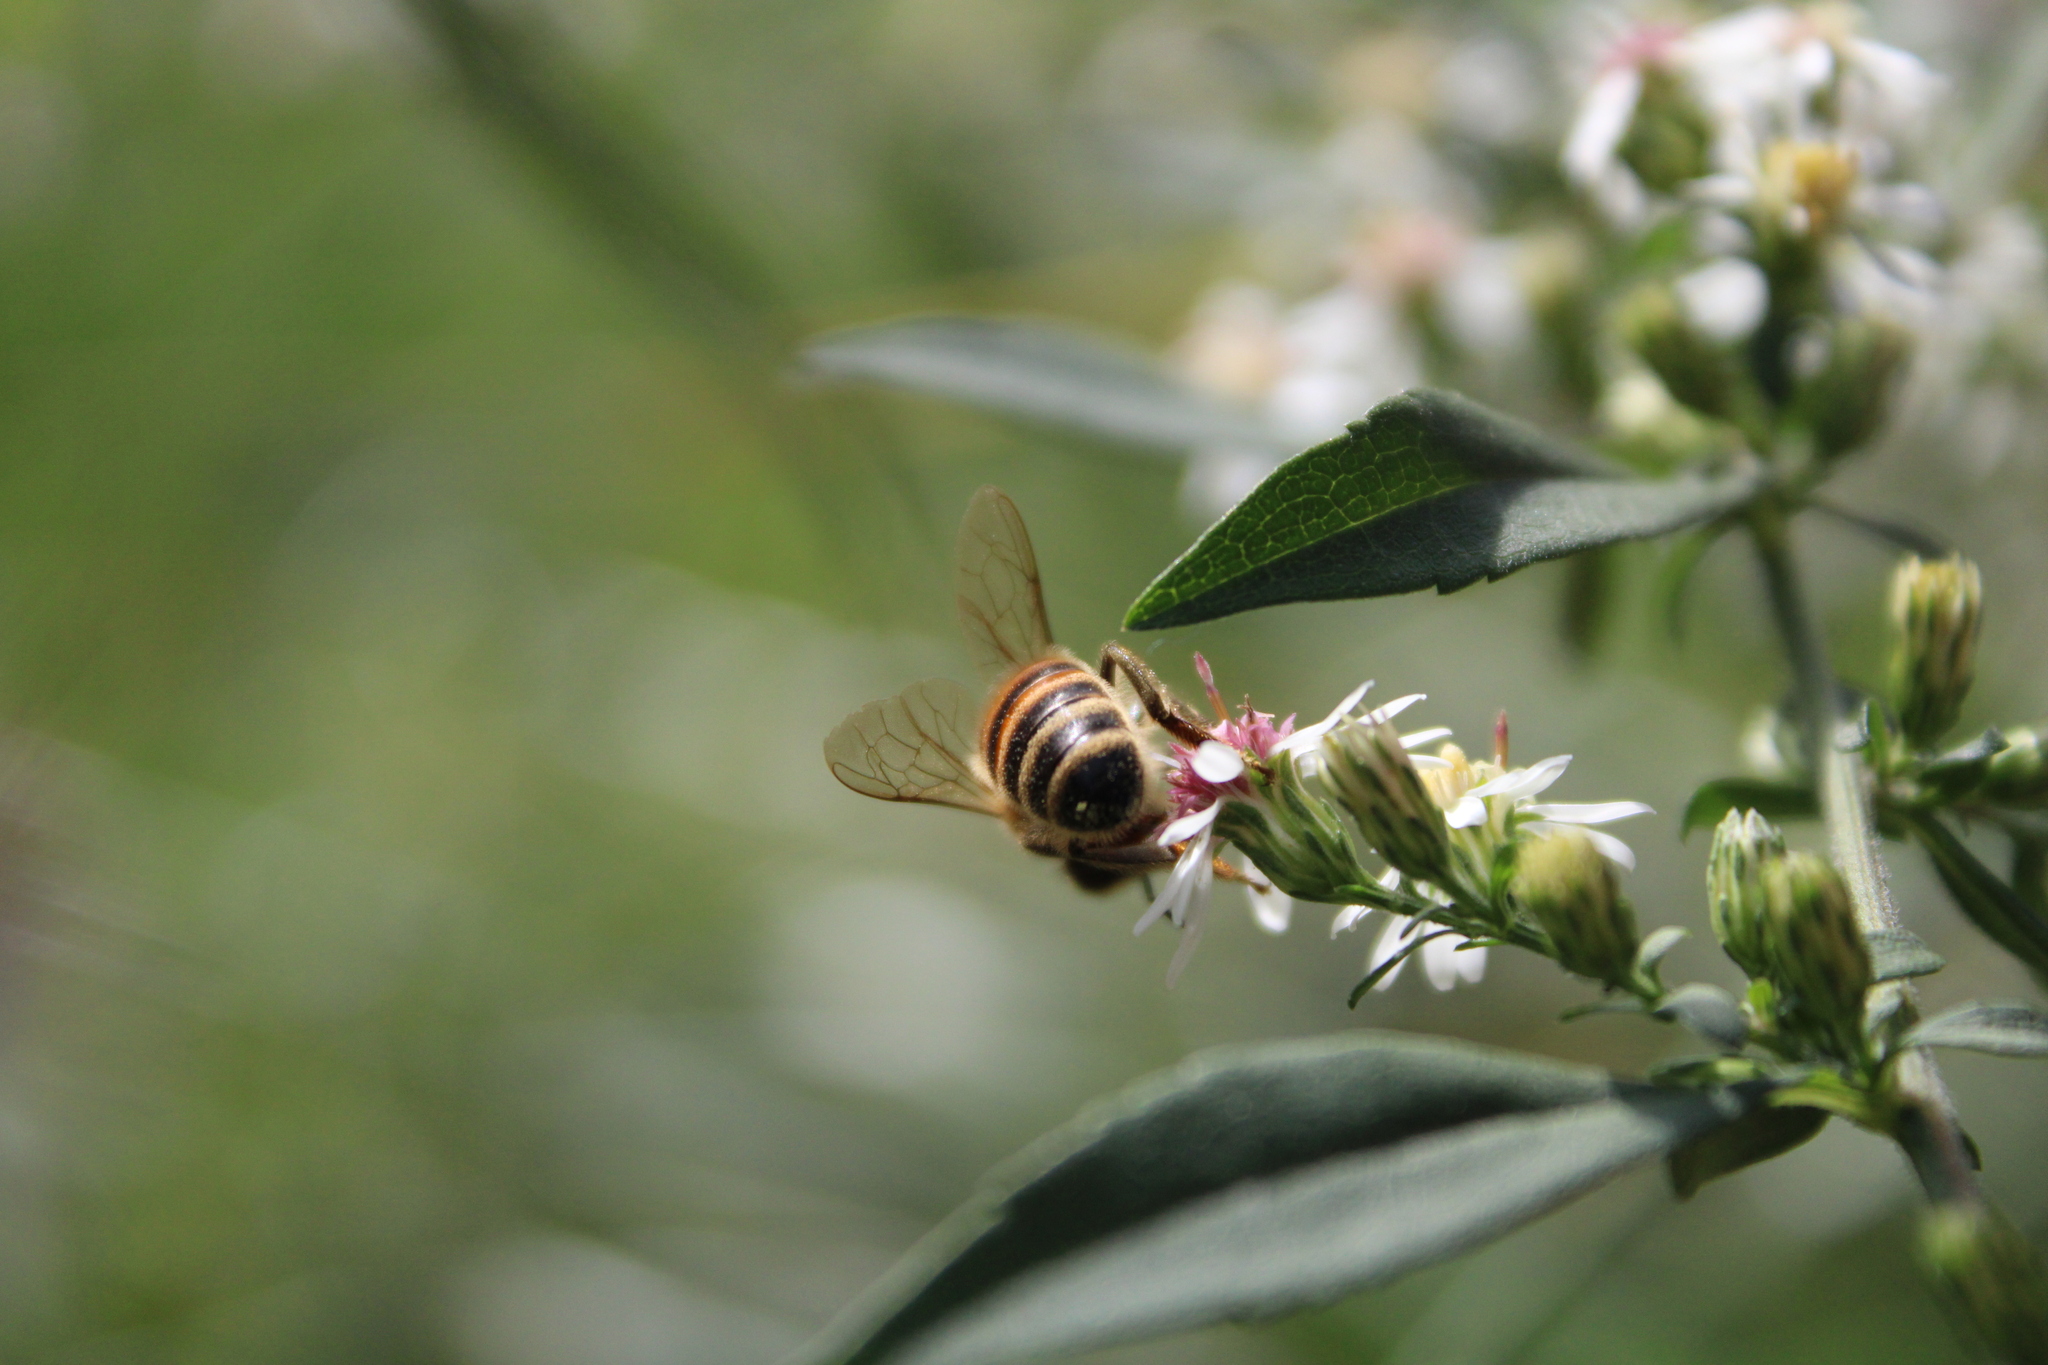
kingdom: Animalia
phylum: Arthropoda
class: Insecta
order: Hymenoptera
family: Apidae
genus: Apis
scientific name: Apis mellifera
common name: Honey bee
